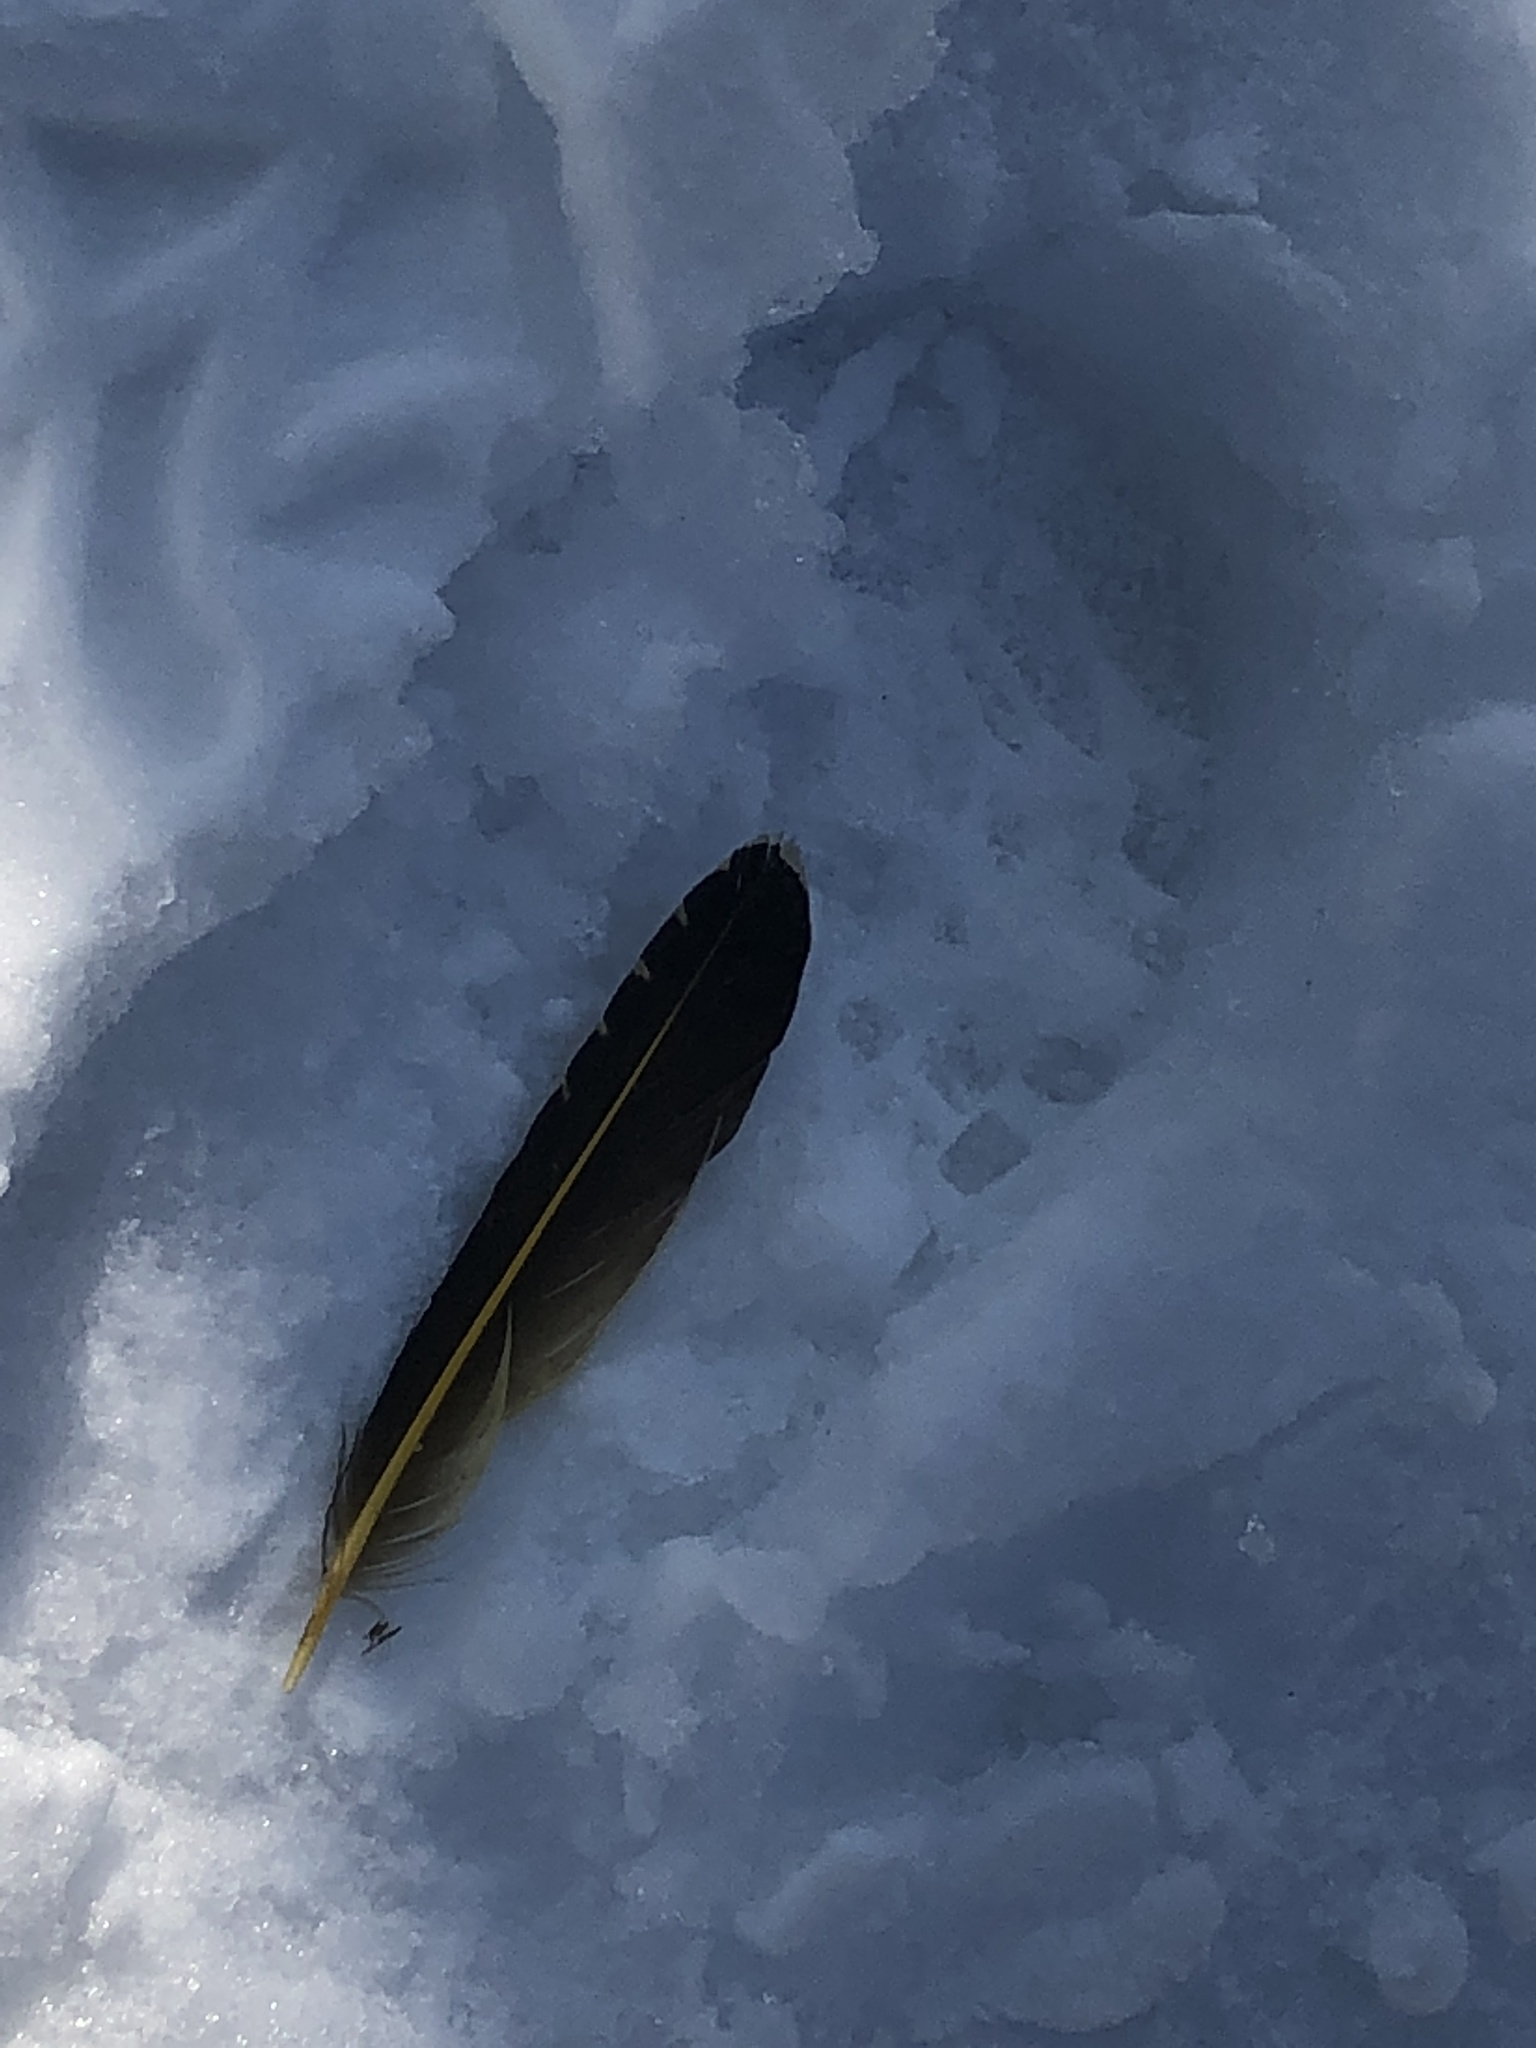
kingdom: Animalia
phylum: Chordata
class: Aves
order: Piciformes
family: Picidae
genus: Colaptes
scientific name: Colaptes auratus
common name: Northern flicker
